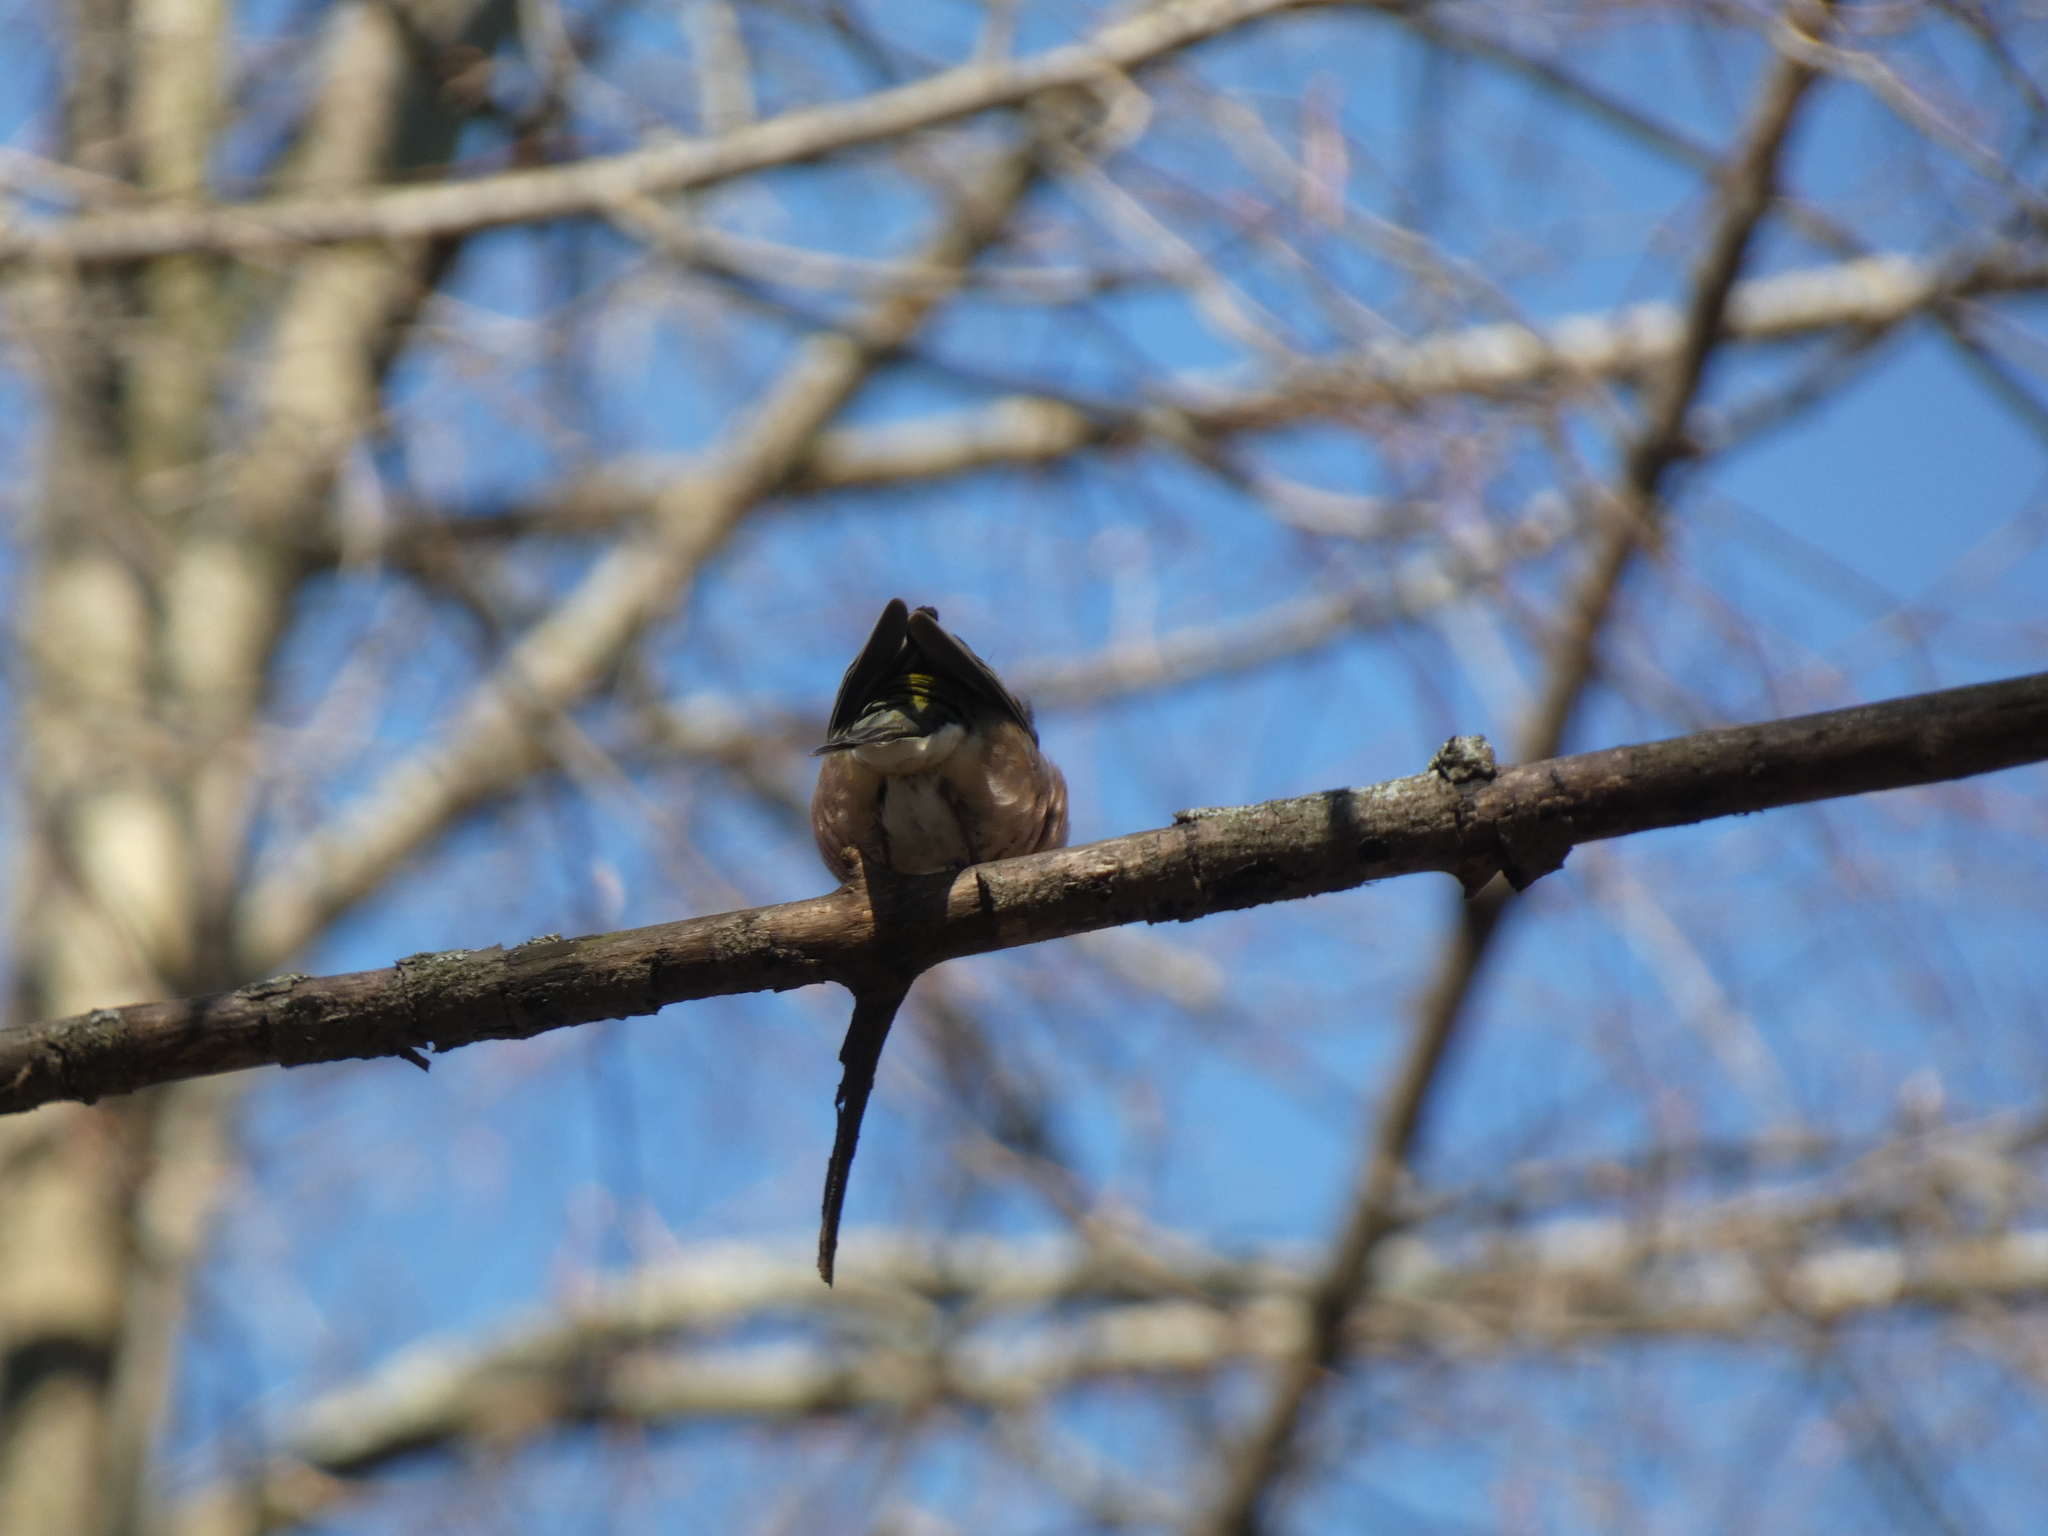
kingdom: Animalia
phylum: Chordata
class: Aves
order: Passeriformes
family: Fringillidae
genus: Fringilla
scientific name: Fringilla coelebs
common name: Common chaffinch
